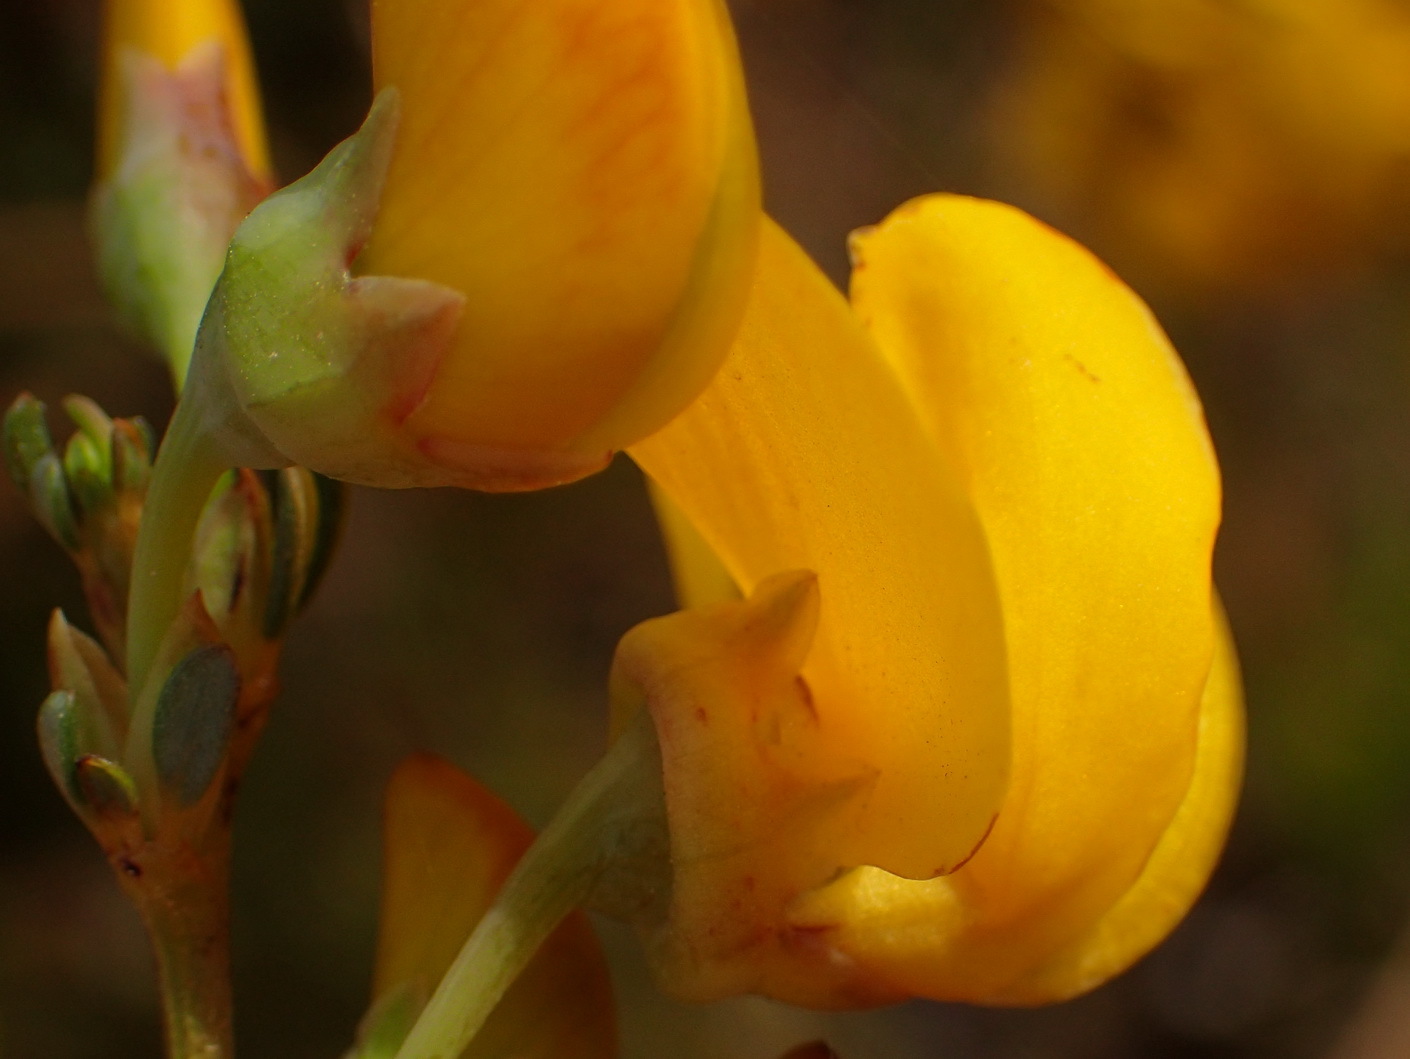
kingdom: Plantae
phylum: Tracheophyta
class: Magnoliopsida
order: Fabales
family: Fabaceae
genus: Cyclopia
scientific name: Cyclopia subternata
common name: Honeybush tea
